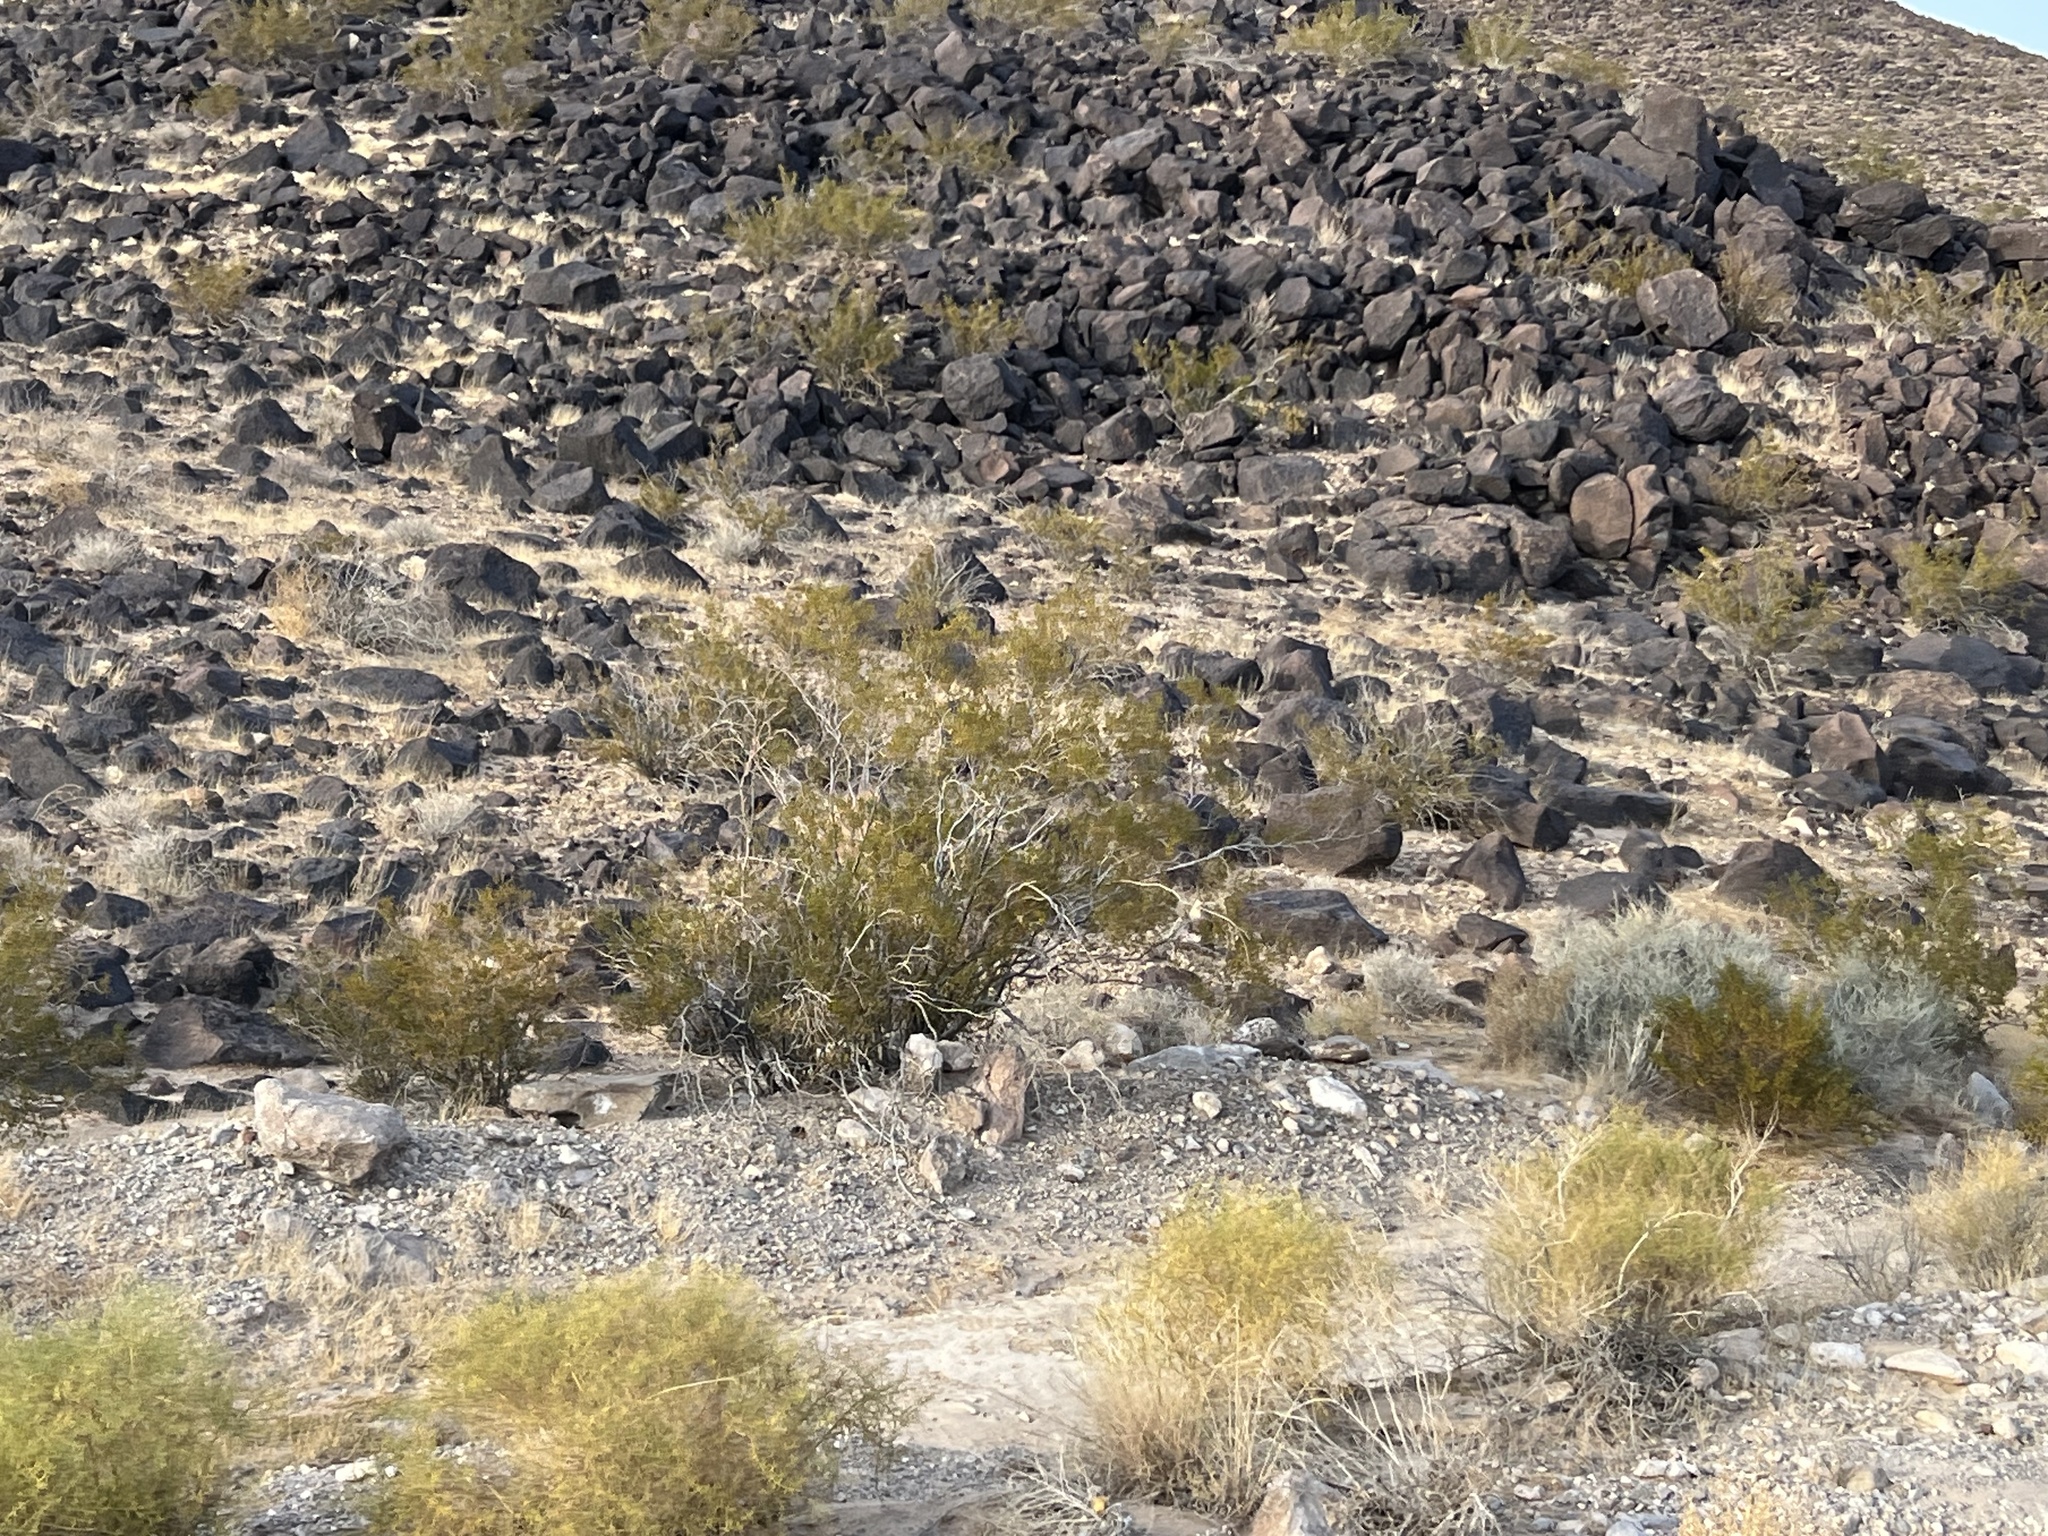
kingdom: Plantae
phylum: Tracheophyta
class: Magnoliopsida
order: Zygophyllales
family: Zygophyllaceae
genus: Larrea
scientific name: Larrea tridentata
